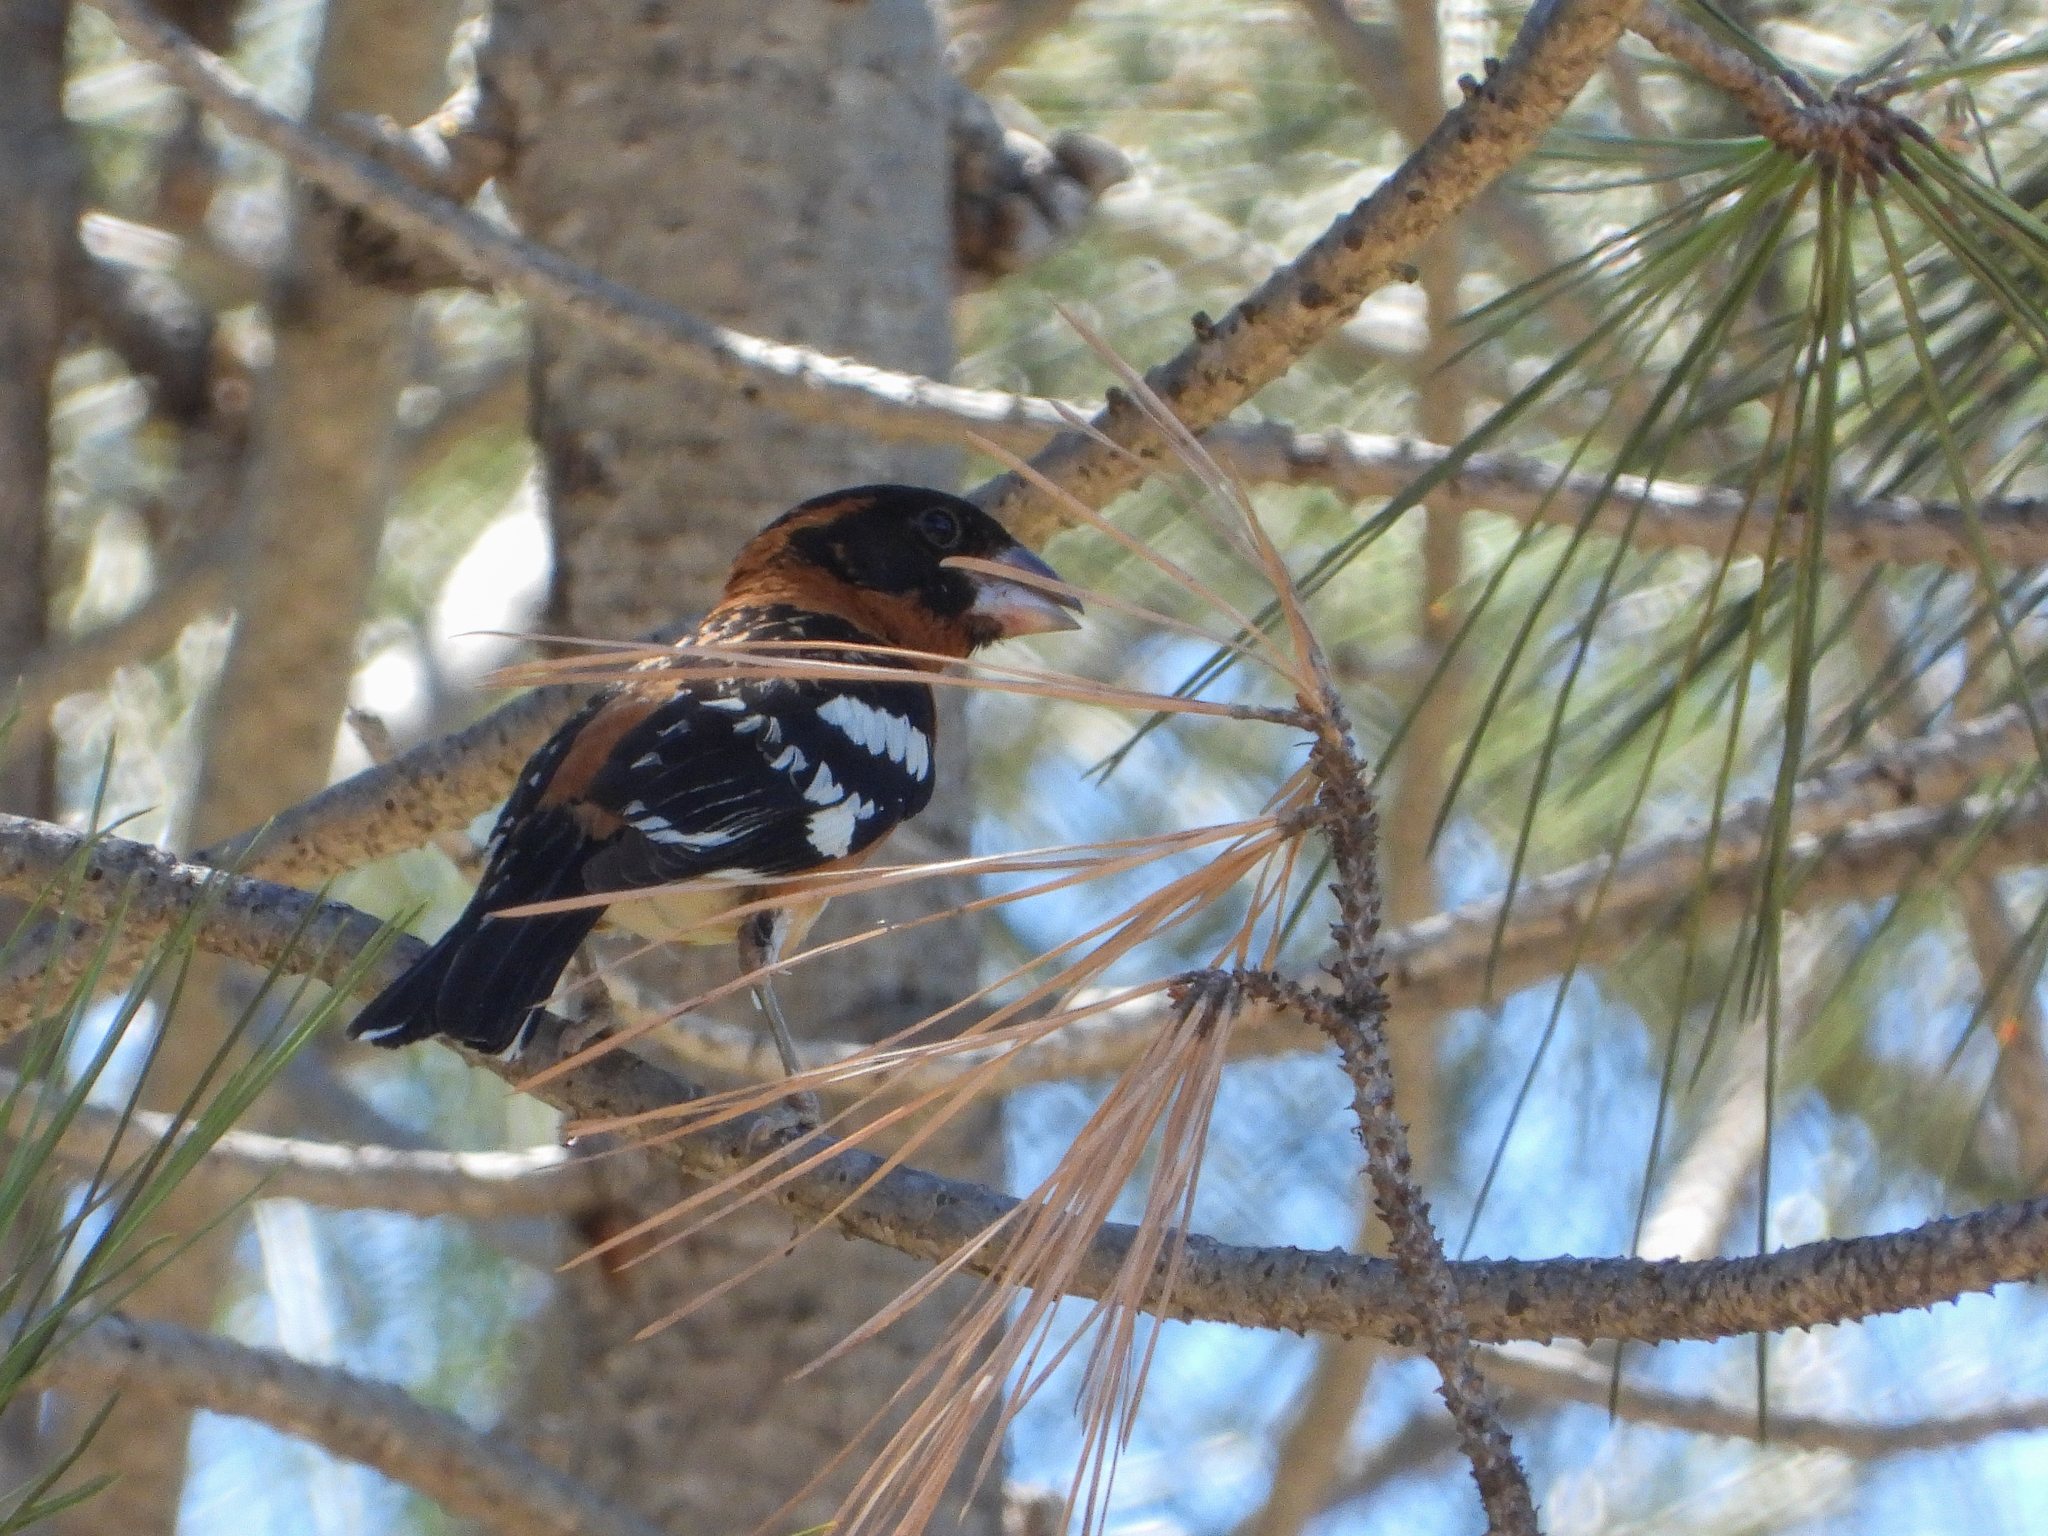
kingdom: Animalia
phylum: Chordata
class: Aves
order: Passeriformes
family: Cardinalidae
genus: Pheucticus
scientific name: Pheucticus melanocephalus
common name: Black-headed grosbeak
